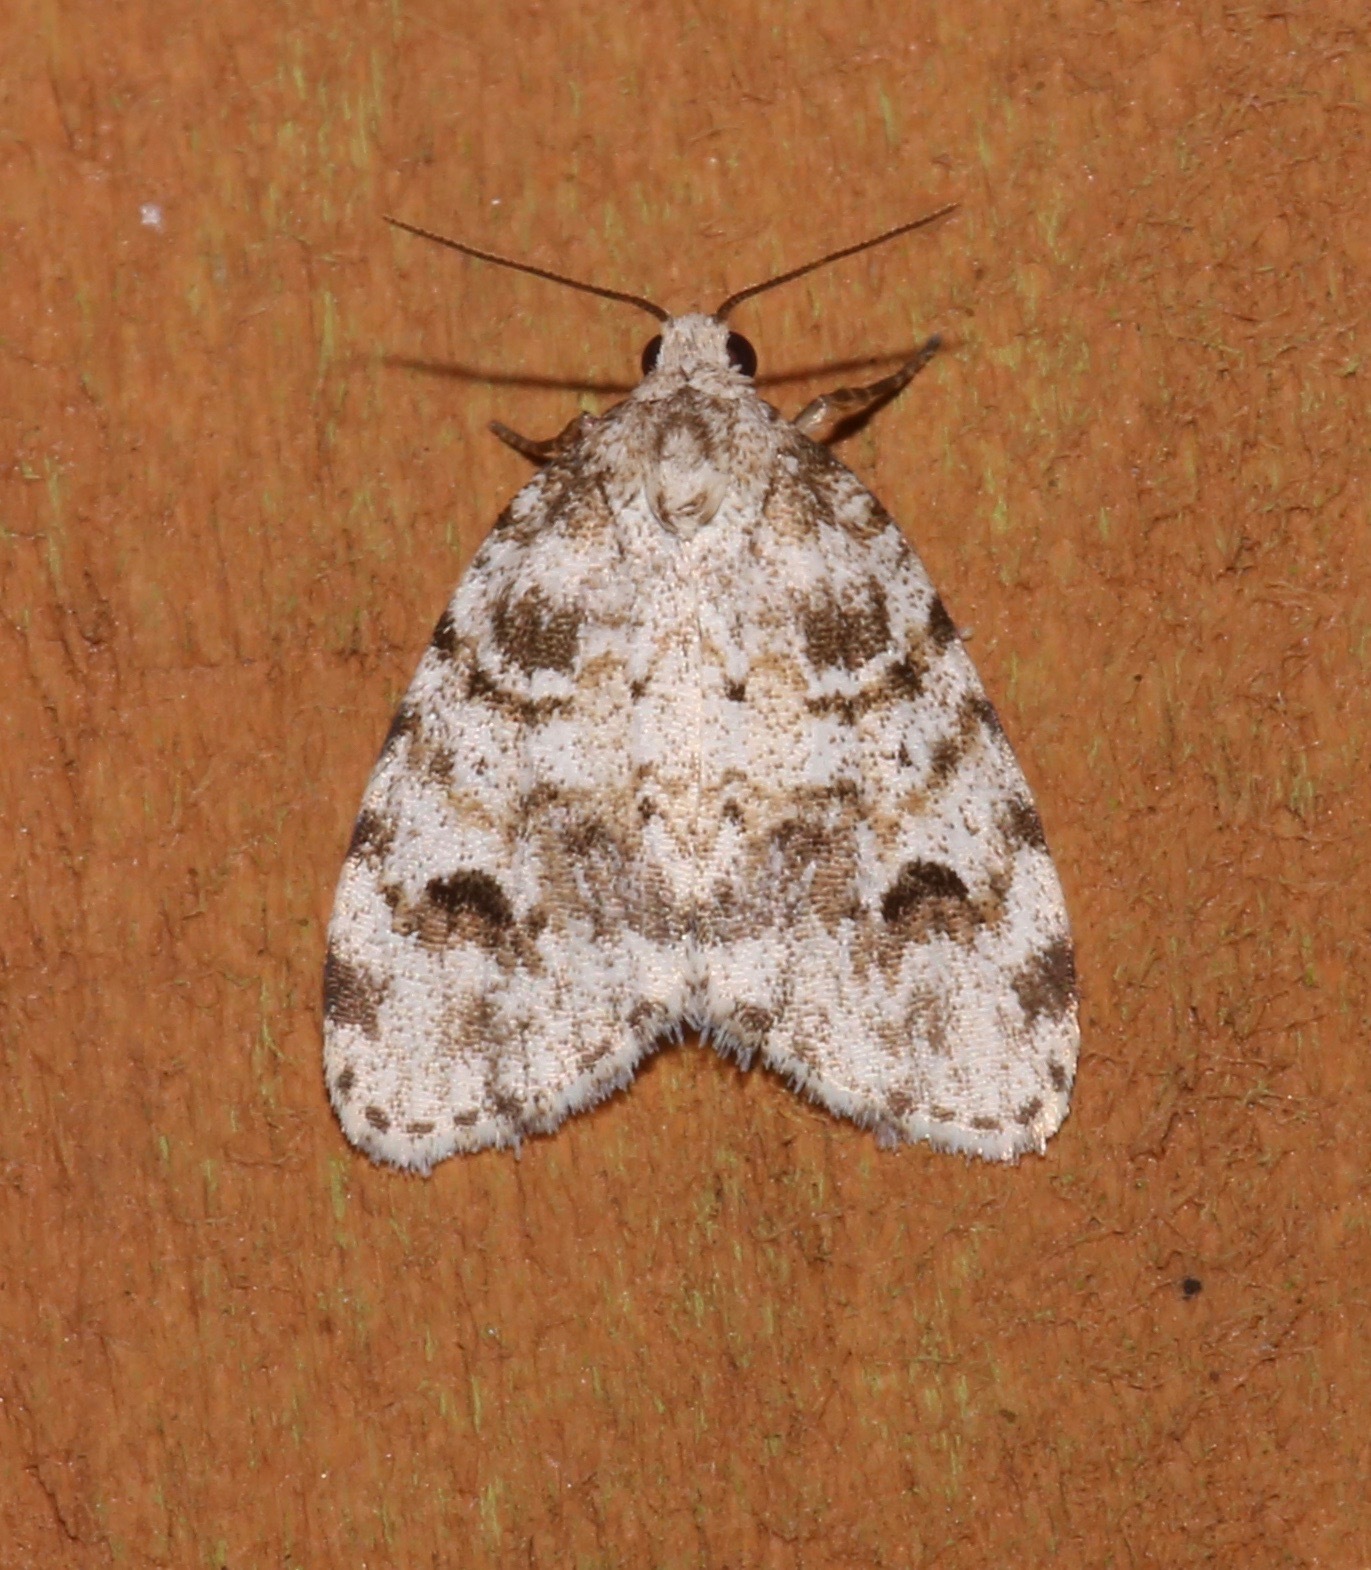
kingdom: Animalia
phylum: Arthropoda
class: Insecta
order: Lepidoptera
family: Erebidae
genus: Clemensia
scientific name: Clemensia ochreata
